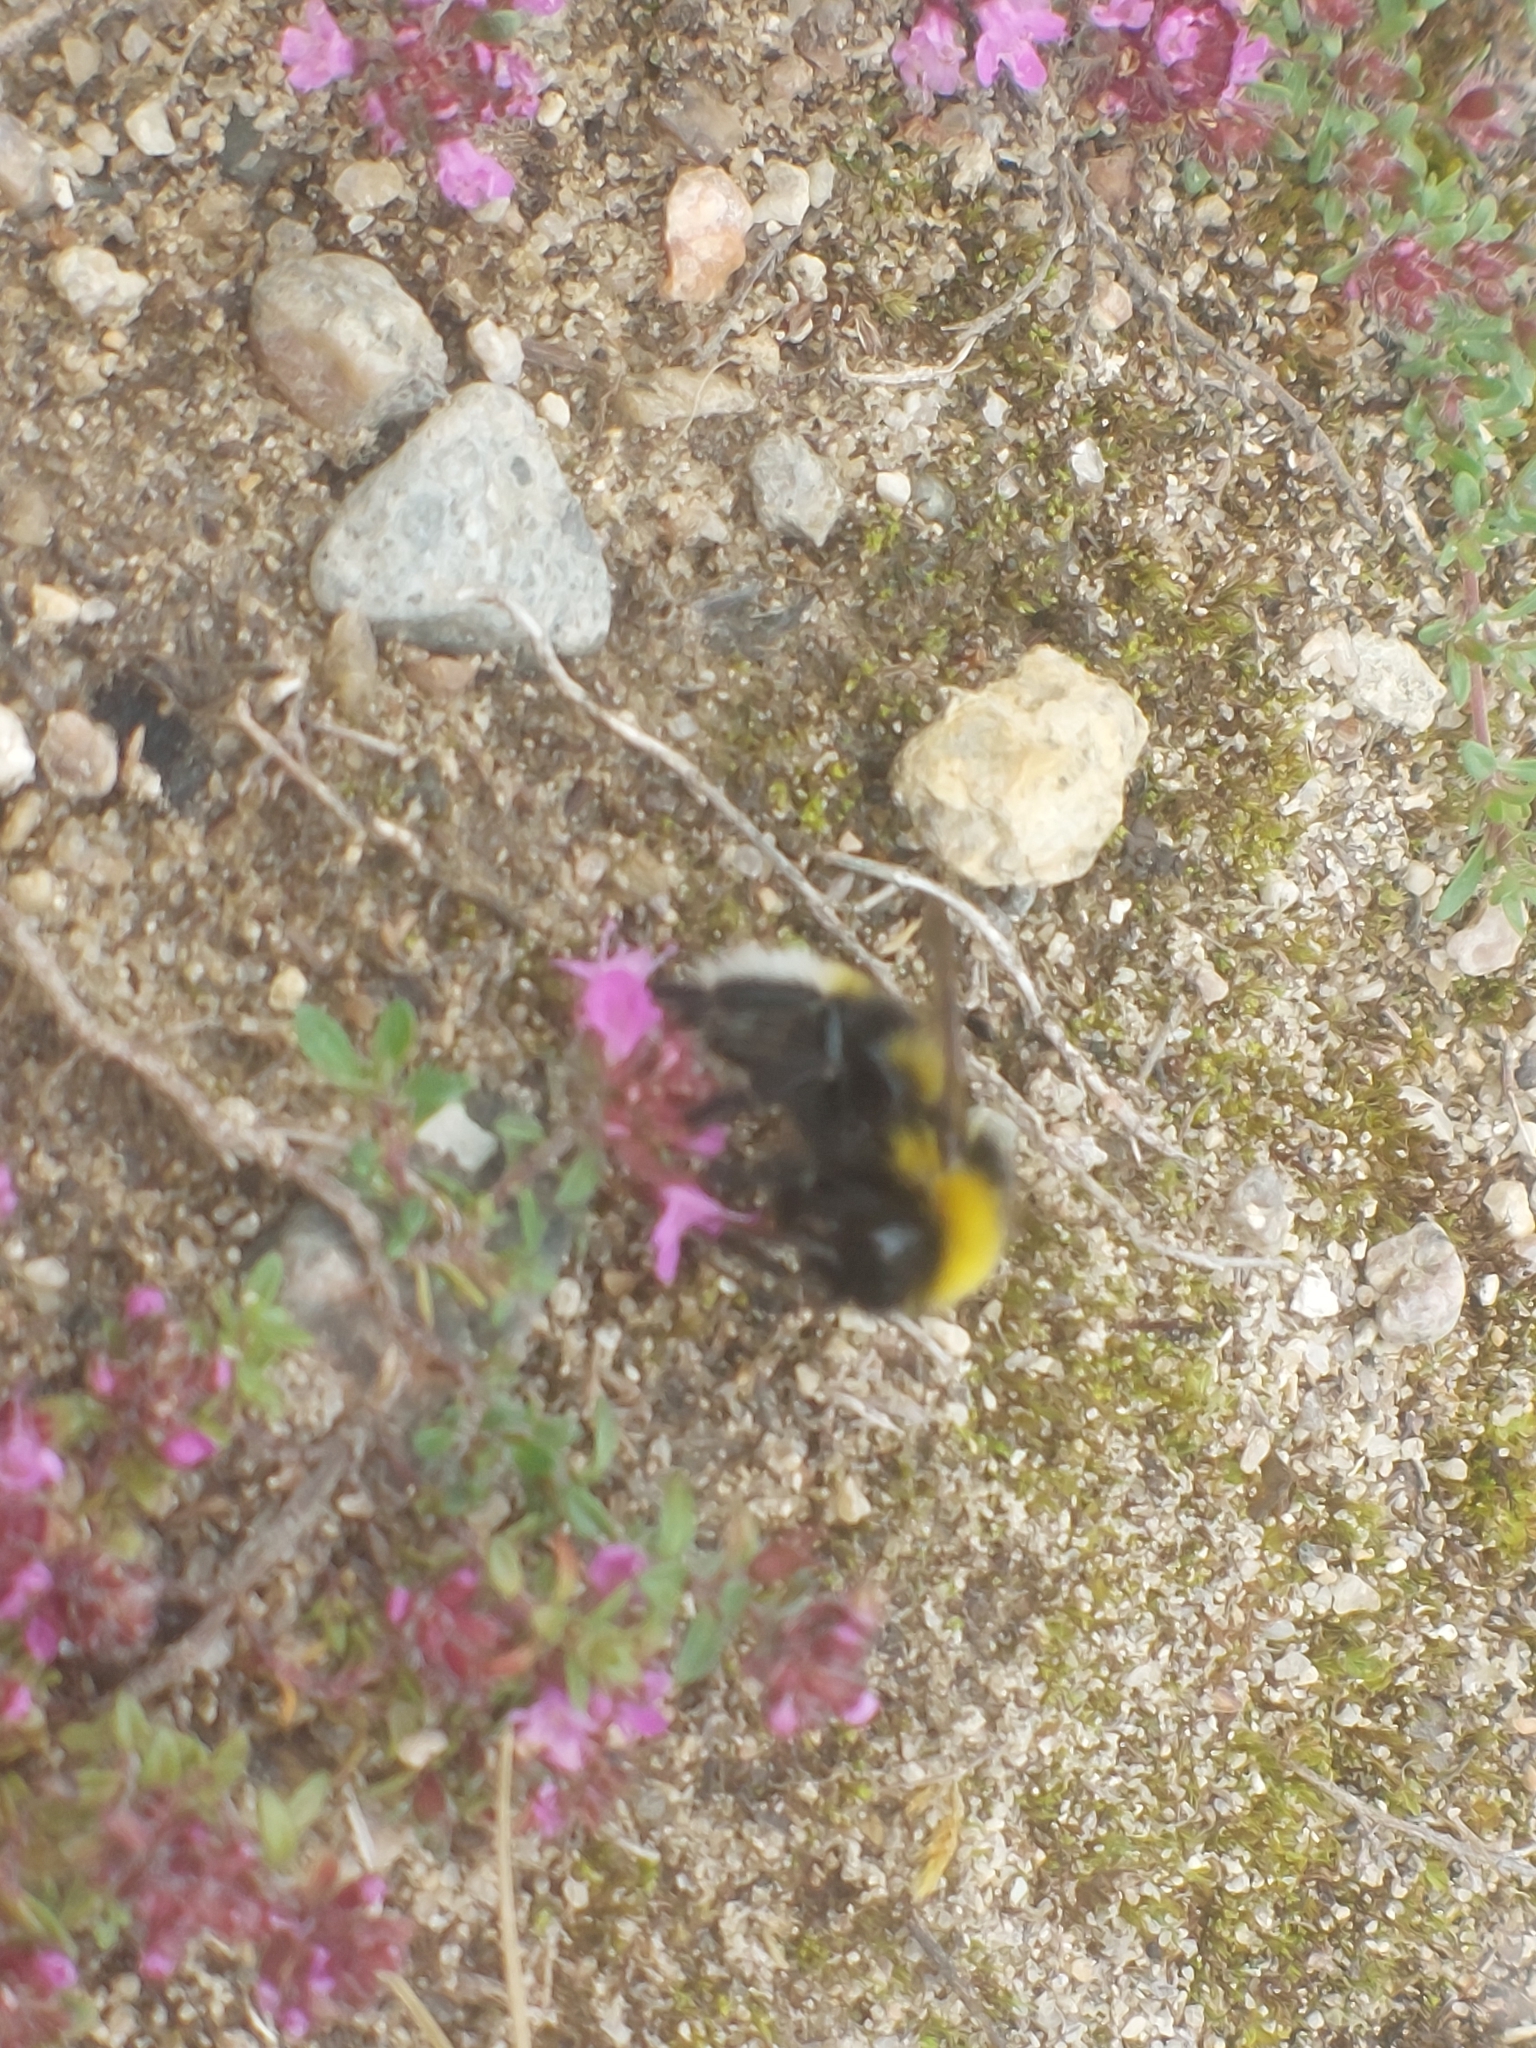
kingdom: Animalia
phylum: Arthropoda
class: Insecta
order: Hymenoptera
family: Apidae
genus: Bombus
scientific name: Bombus
